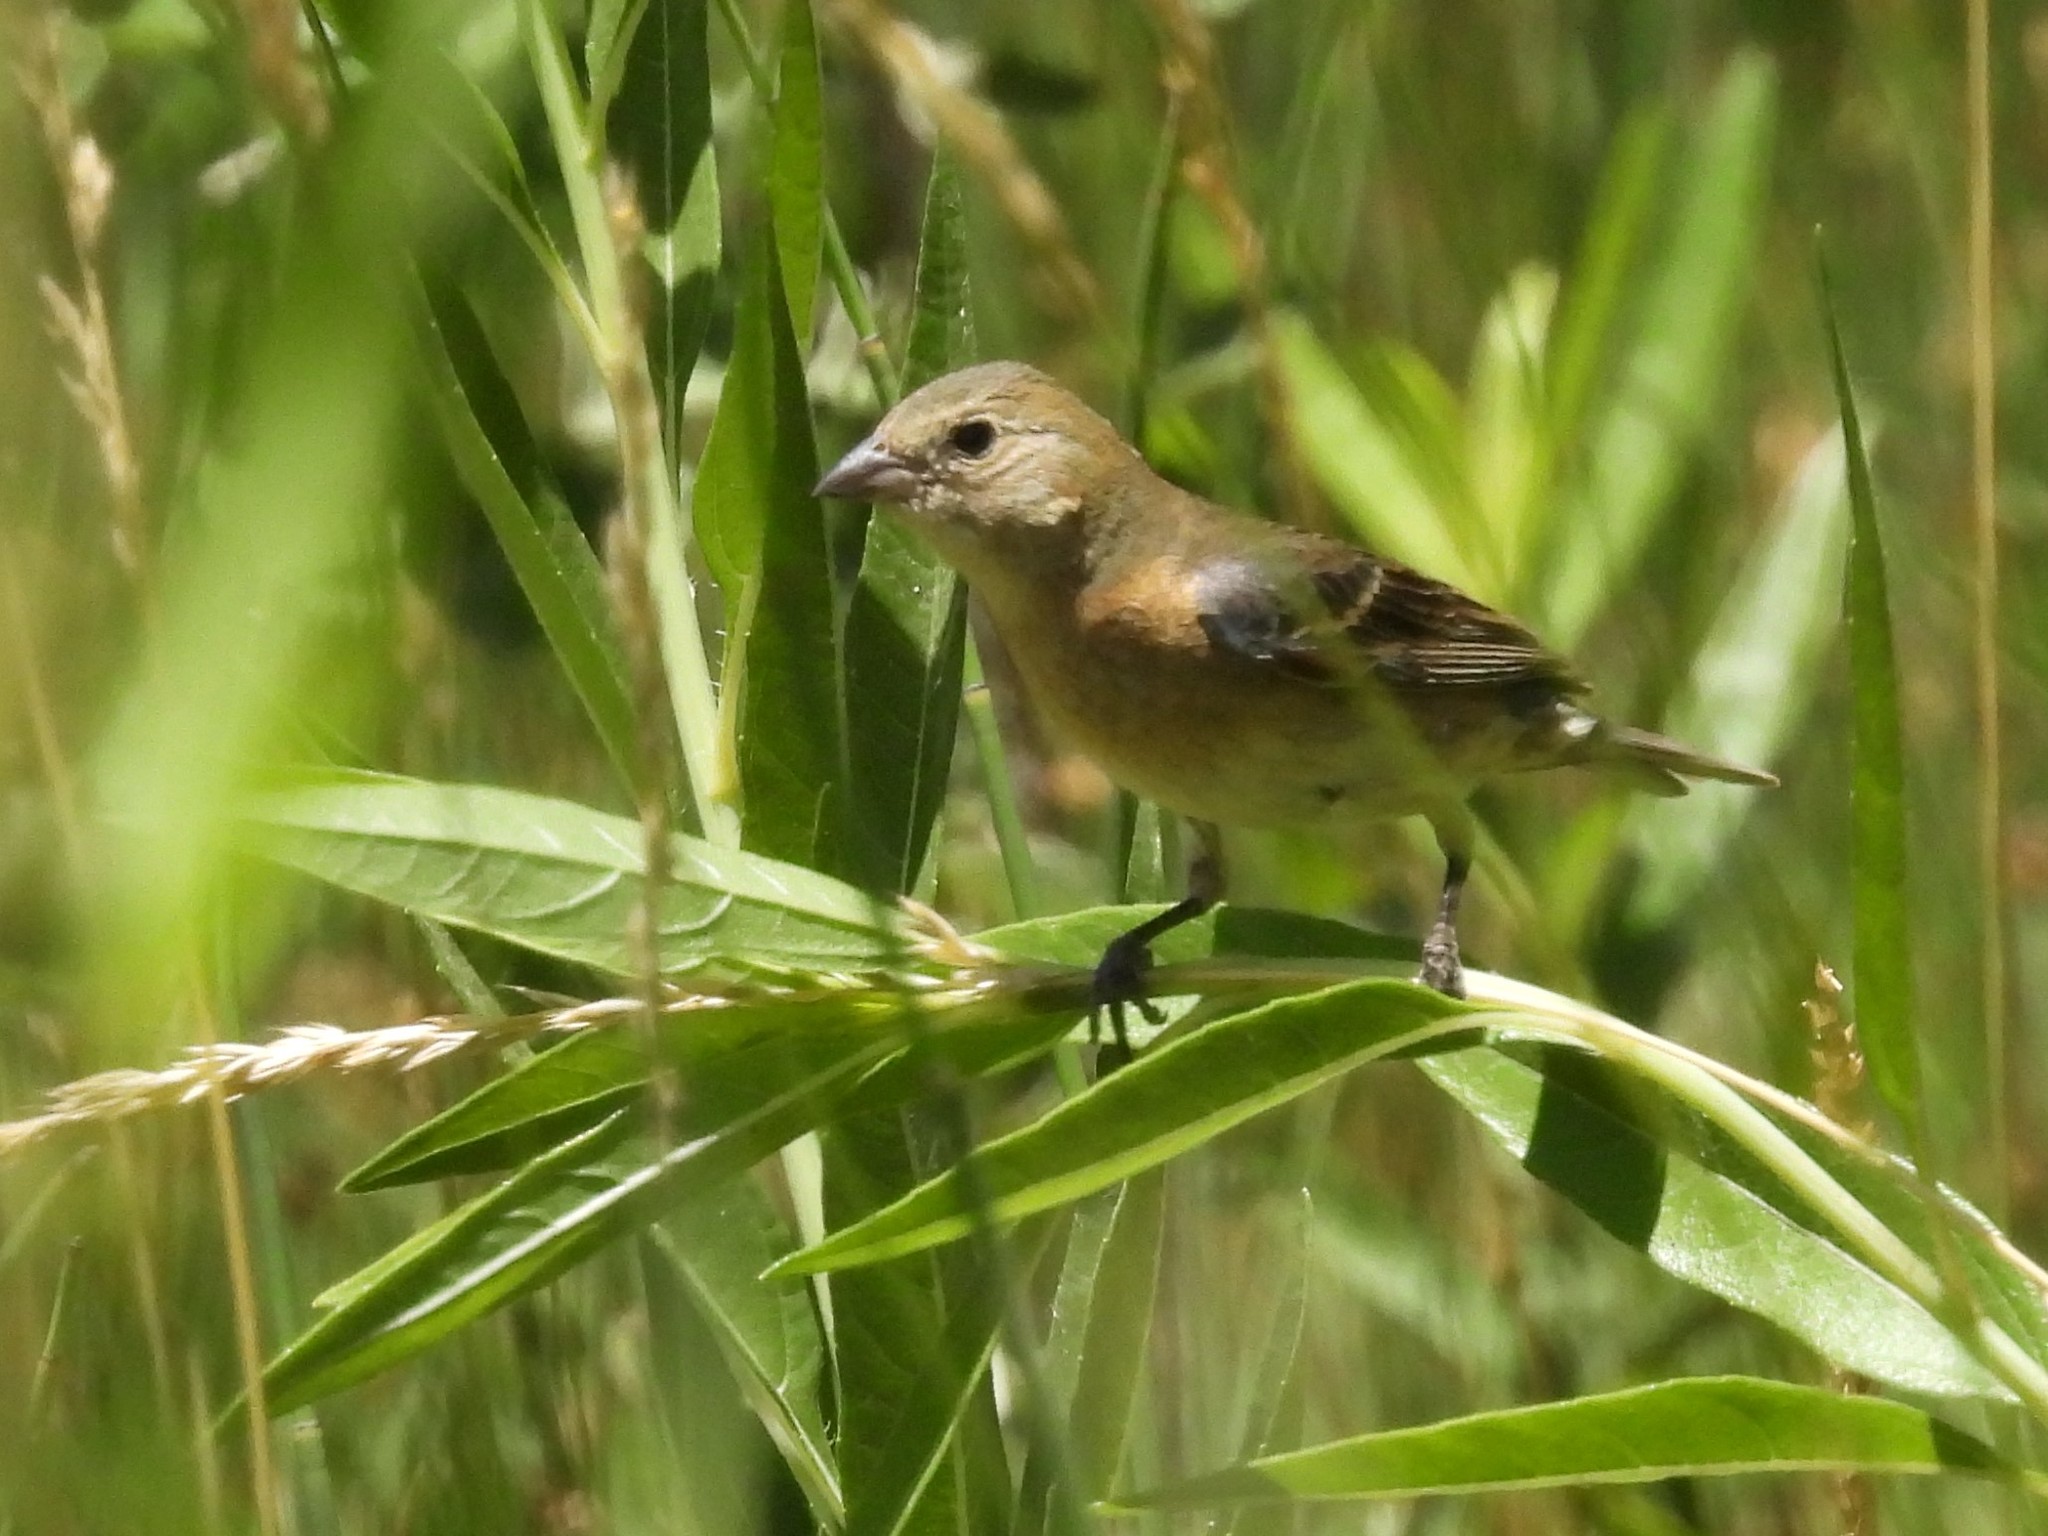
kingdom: Animalia
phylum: Chordata
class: Aves
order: Passeriformes
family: Cardinalidae
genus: Passerina
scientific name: Passerina amoena
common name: Lazuli bunting
